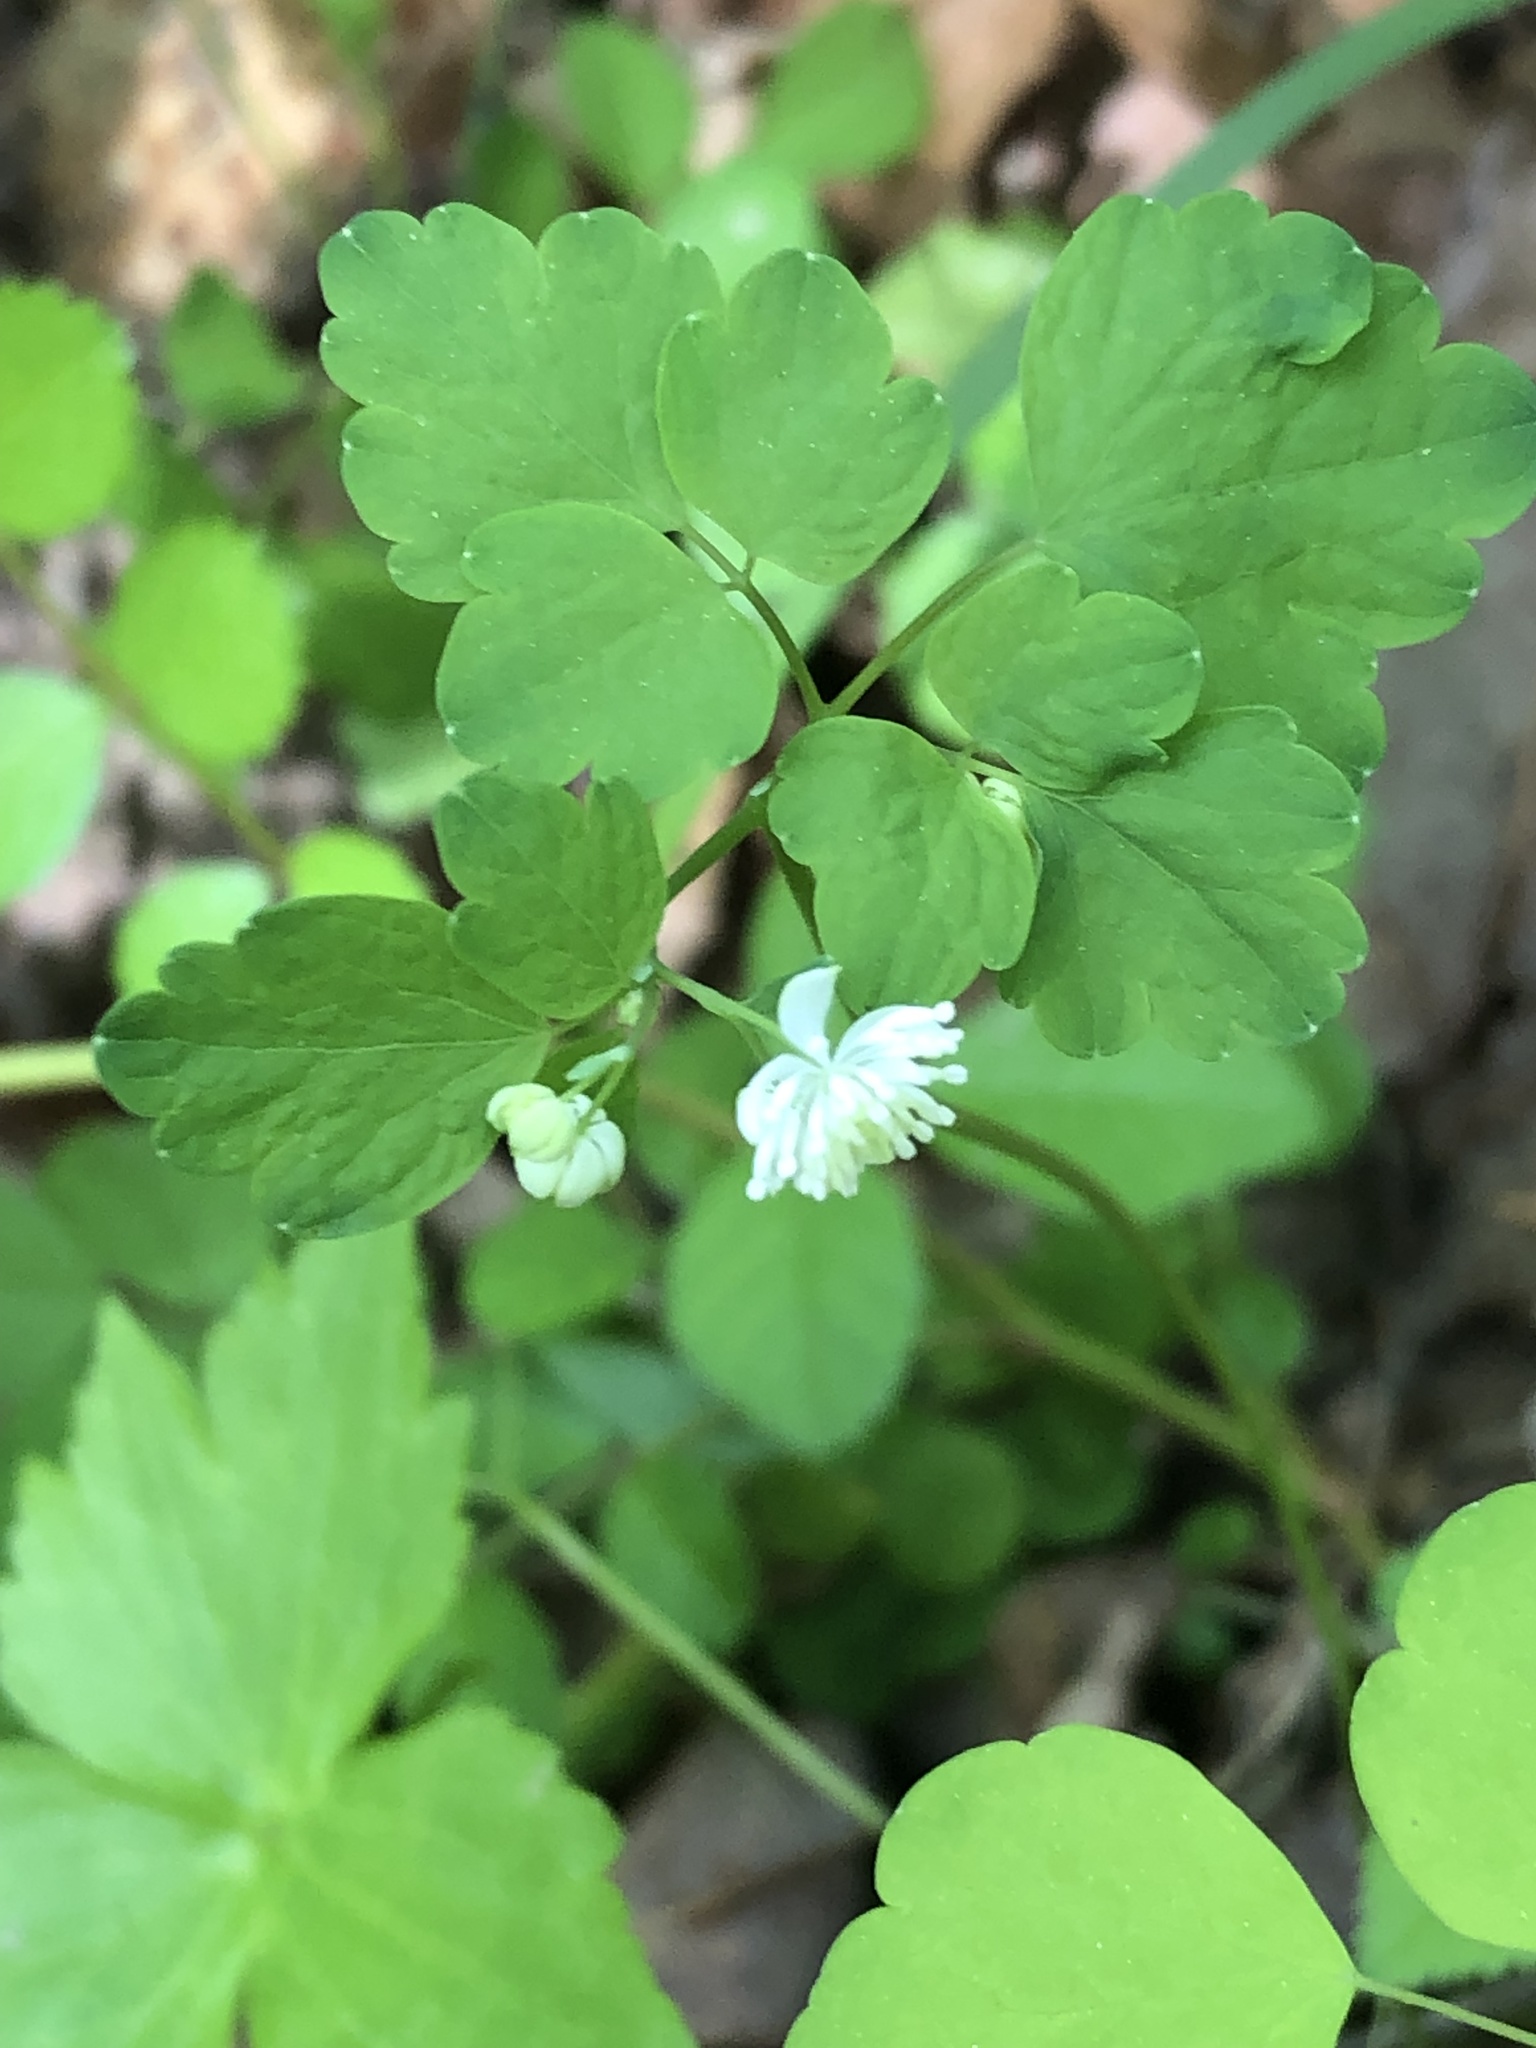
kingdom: Plantae
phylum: Tracheophyta
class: Magnoliopsida
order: Ranunculales
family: Ranunculaceae
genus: Thalictrum
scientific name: Thalictrum clavatum
